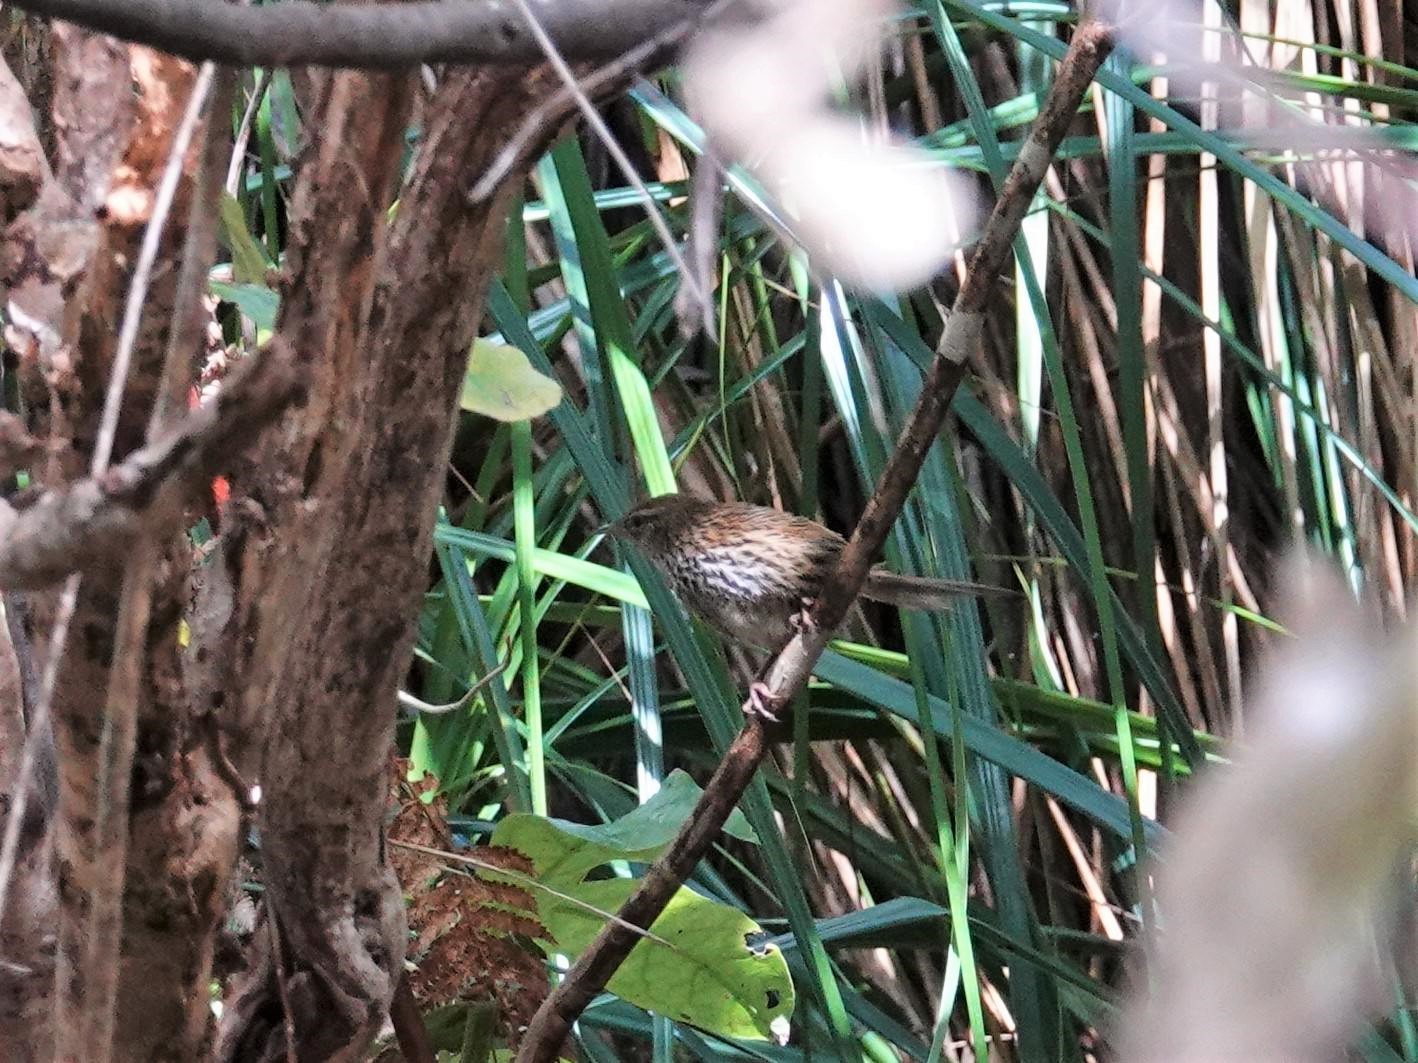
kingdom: Animalia
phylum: Chordata
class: Aves
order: Passeriformes
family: Locustellidae
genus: Megalurus
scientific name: Megalurus punctatus
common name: New zealand fernbird
